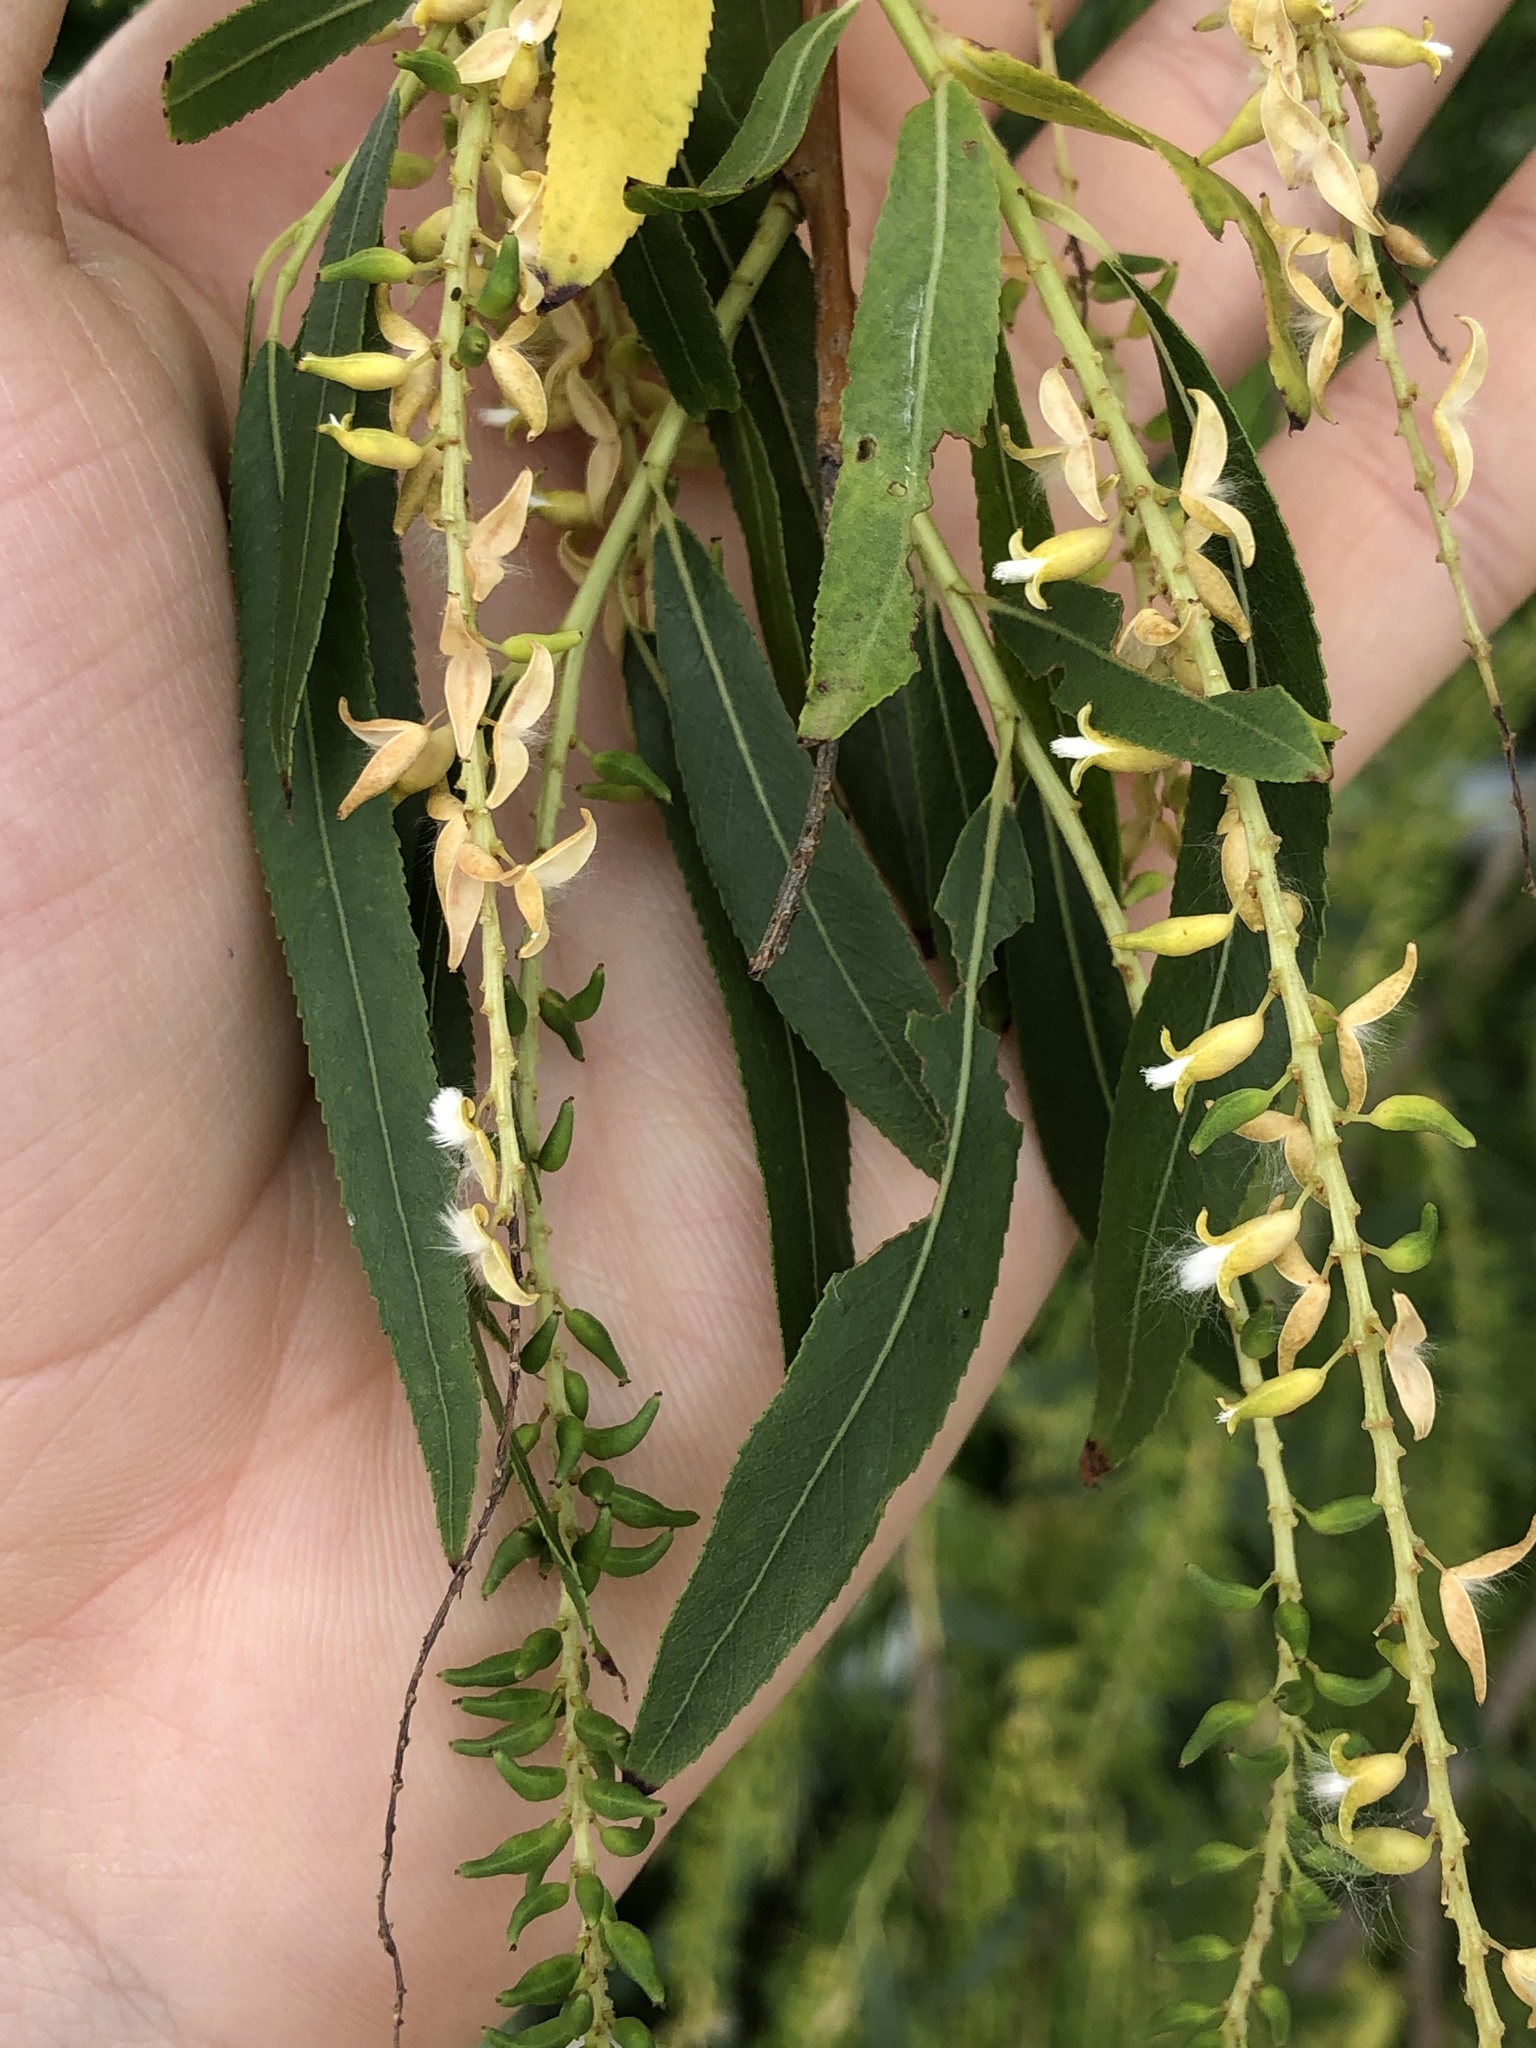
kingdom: Plantae
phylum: Tracheophyta
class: Magnoliopsida
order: Malpighiales
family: Salicaceae
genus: Salix
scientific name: Salix nigra
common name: Black willow
